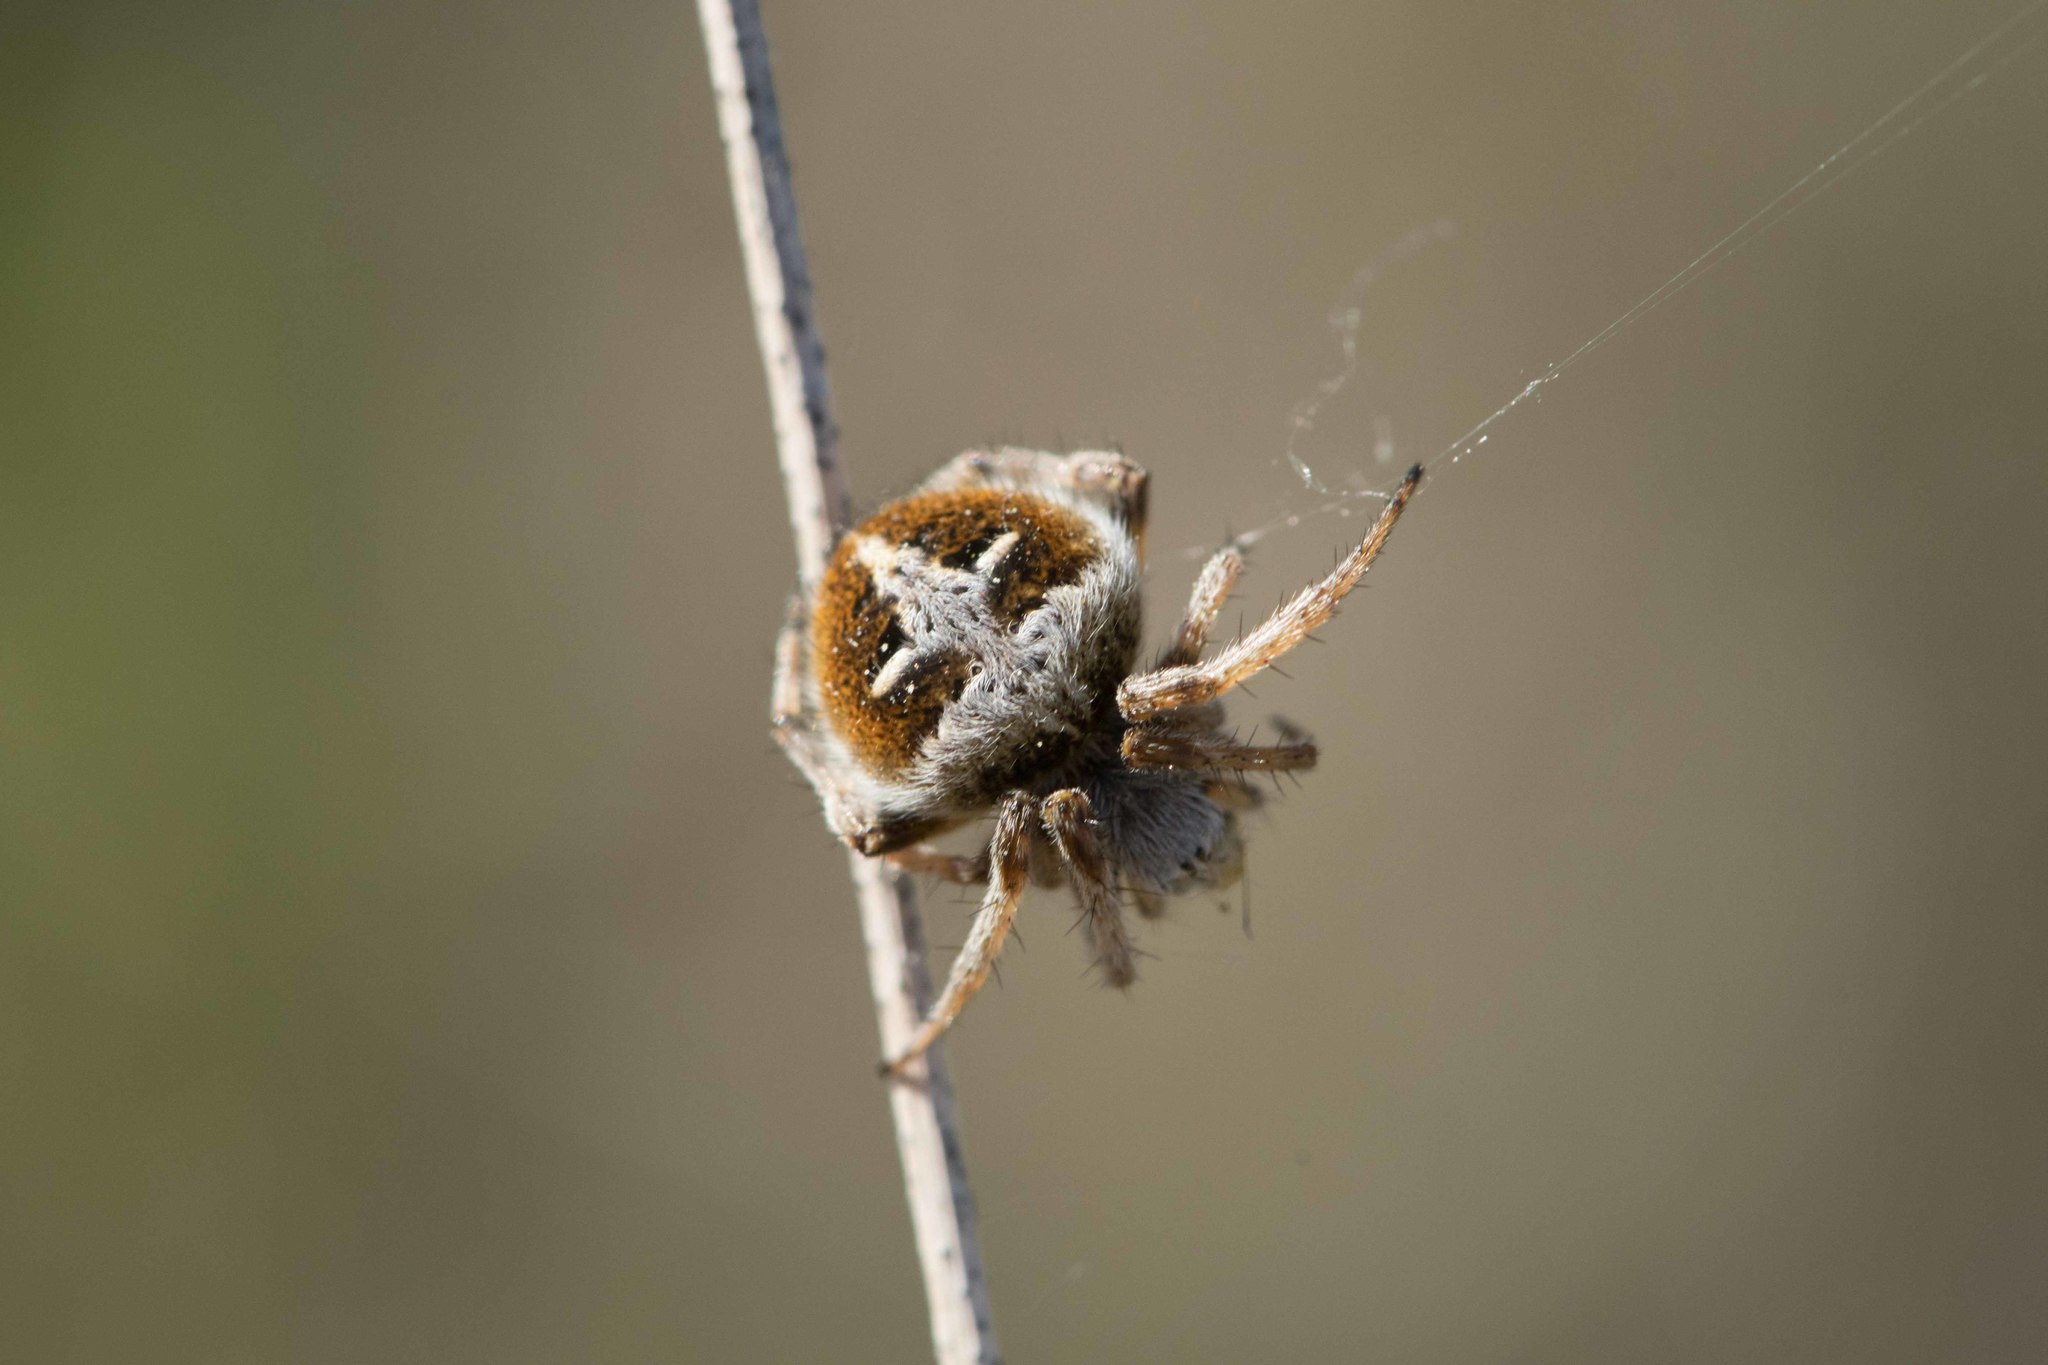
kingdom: Animalia
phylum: Arthropoda
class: Arachnida
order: Araneae
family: Araneidae
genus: Agalenatea
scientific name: Agalenatea redii
